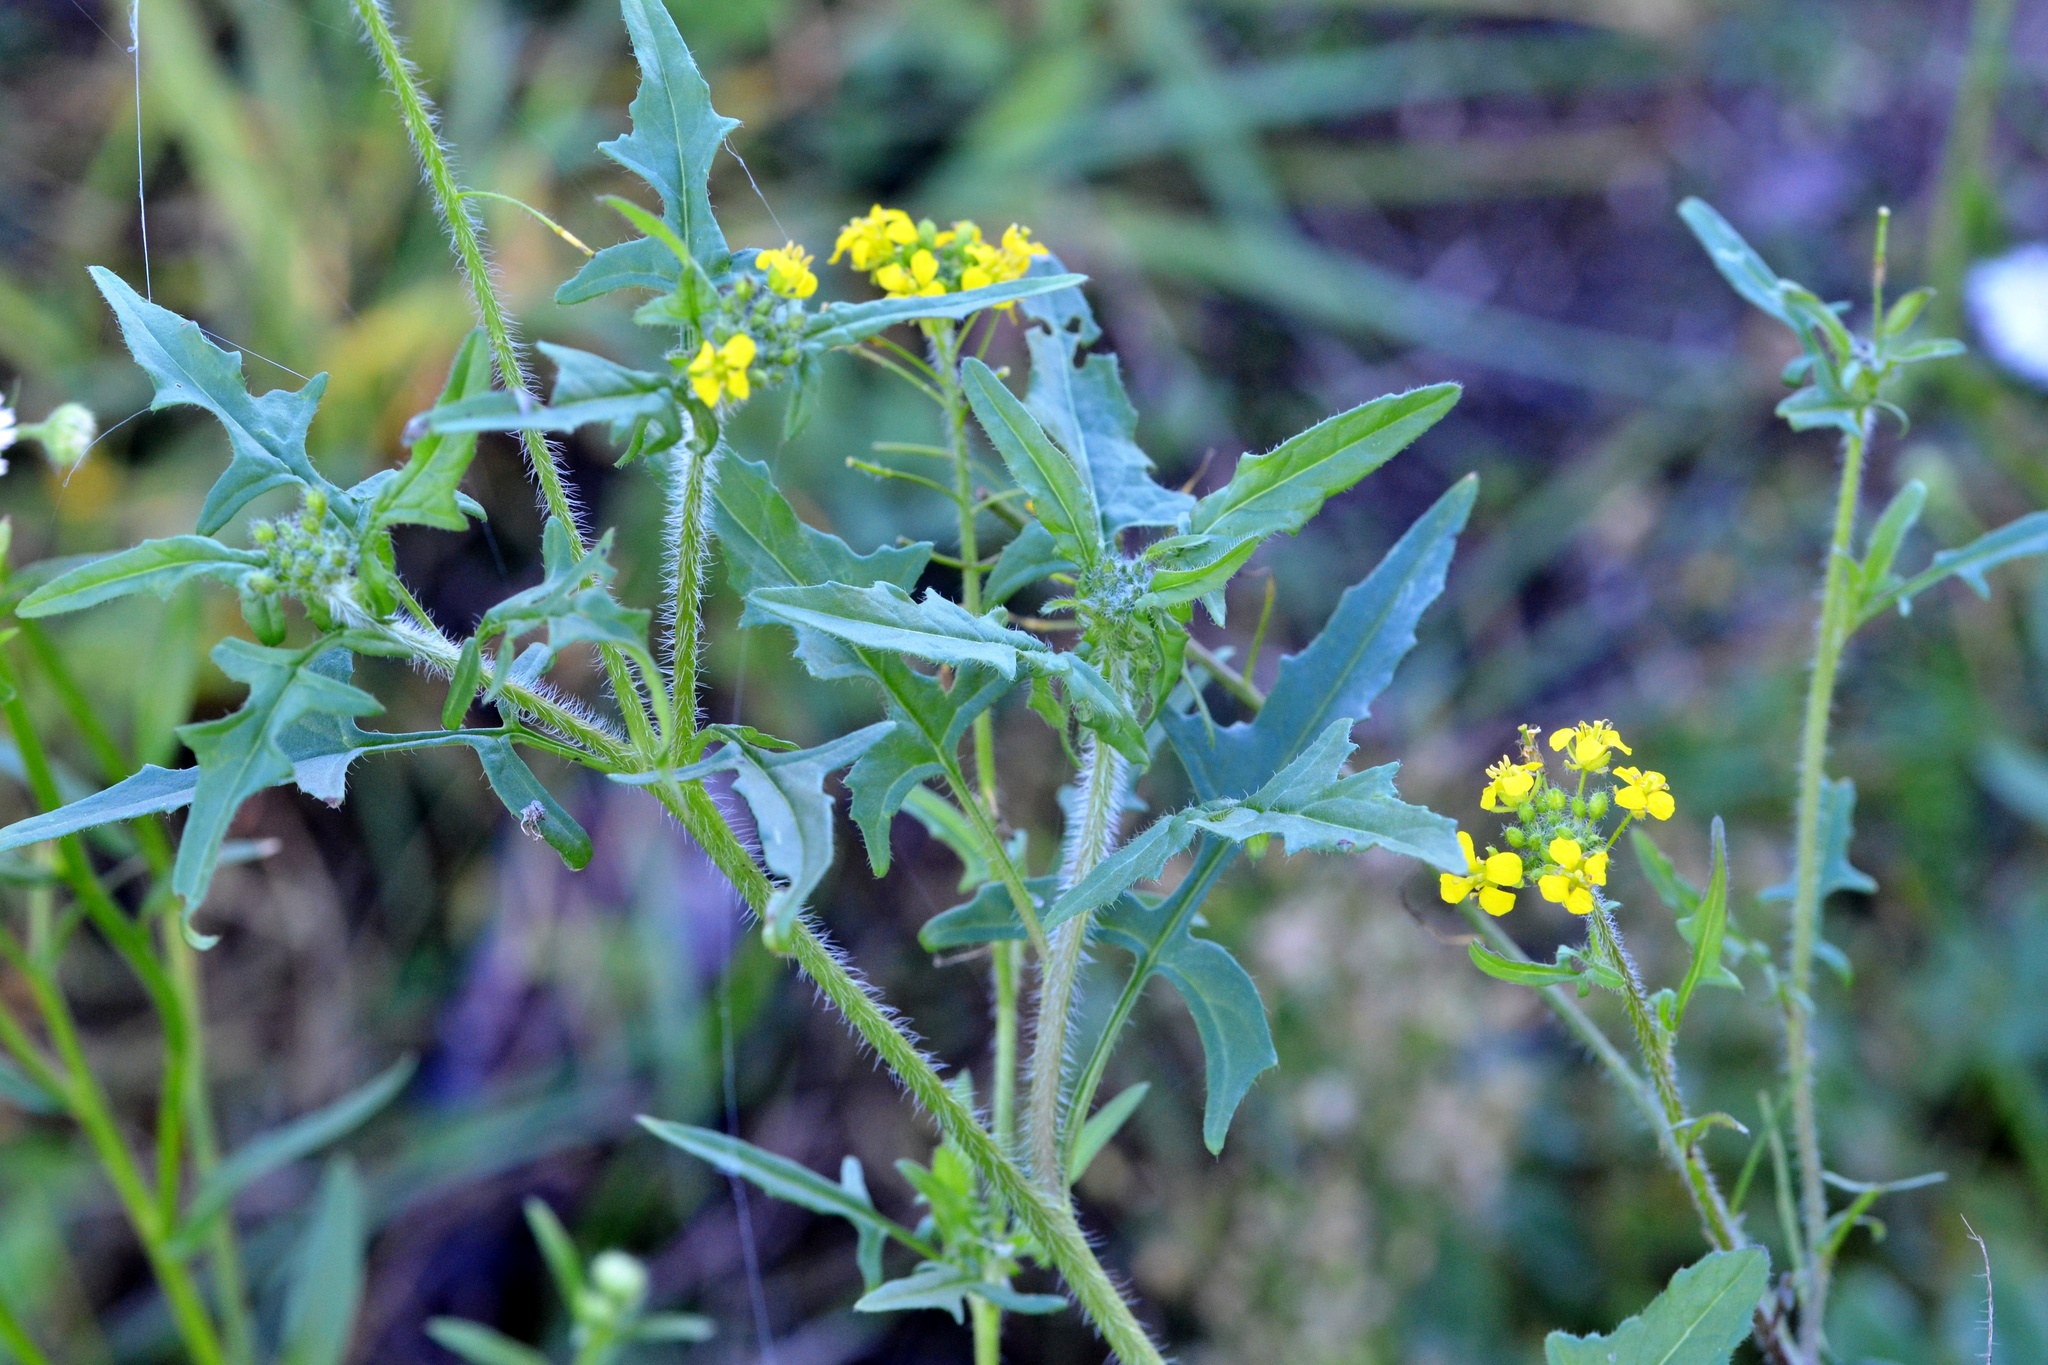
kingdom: Plantae
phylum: Tracheophyta
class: Magnoliopsida
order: Brassicales
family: Brassicaceae
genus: Sisymbrium
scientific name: Sisymbrium loeselii
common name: False london-rocket
